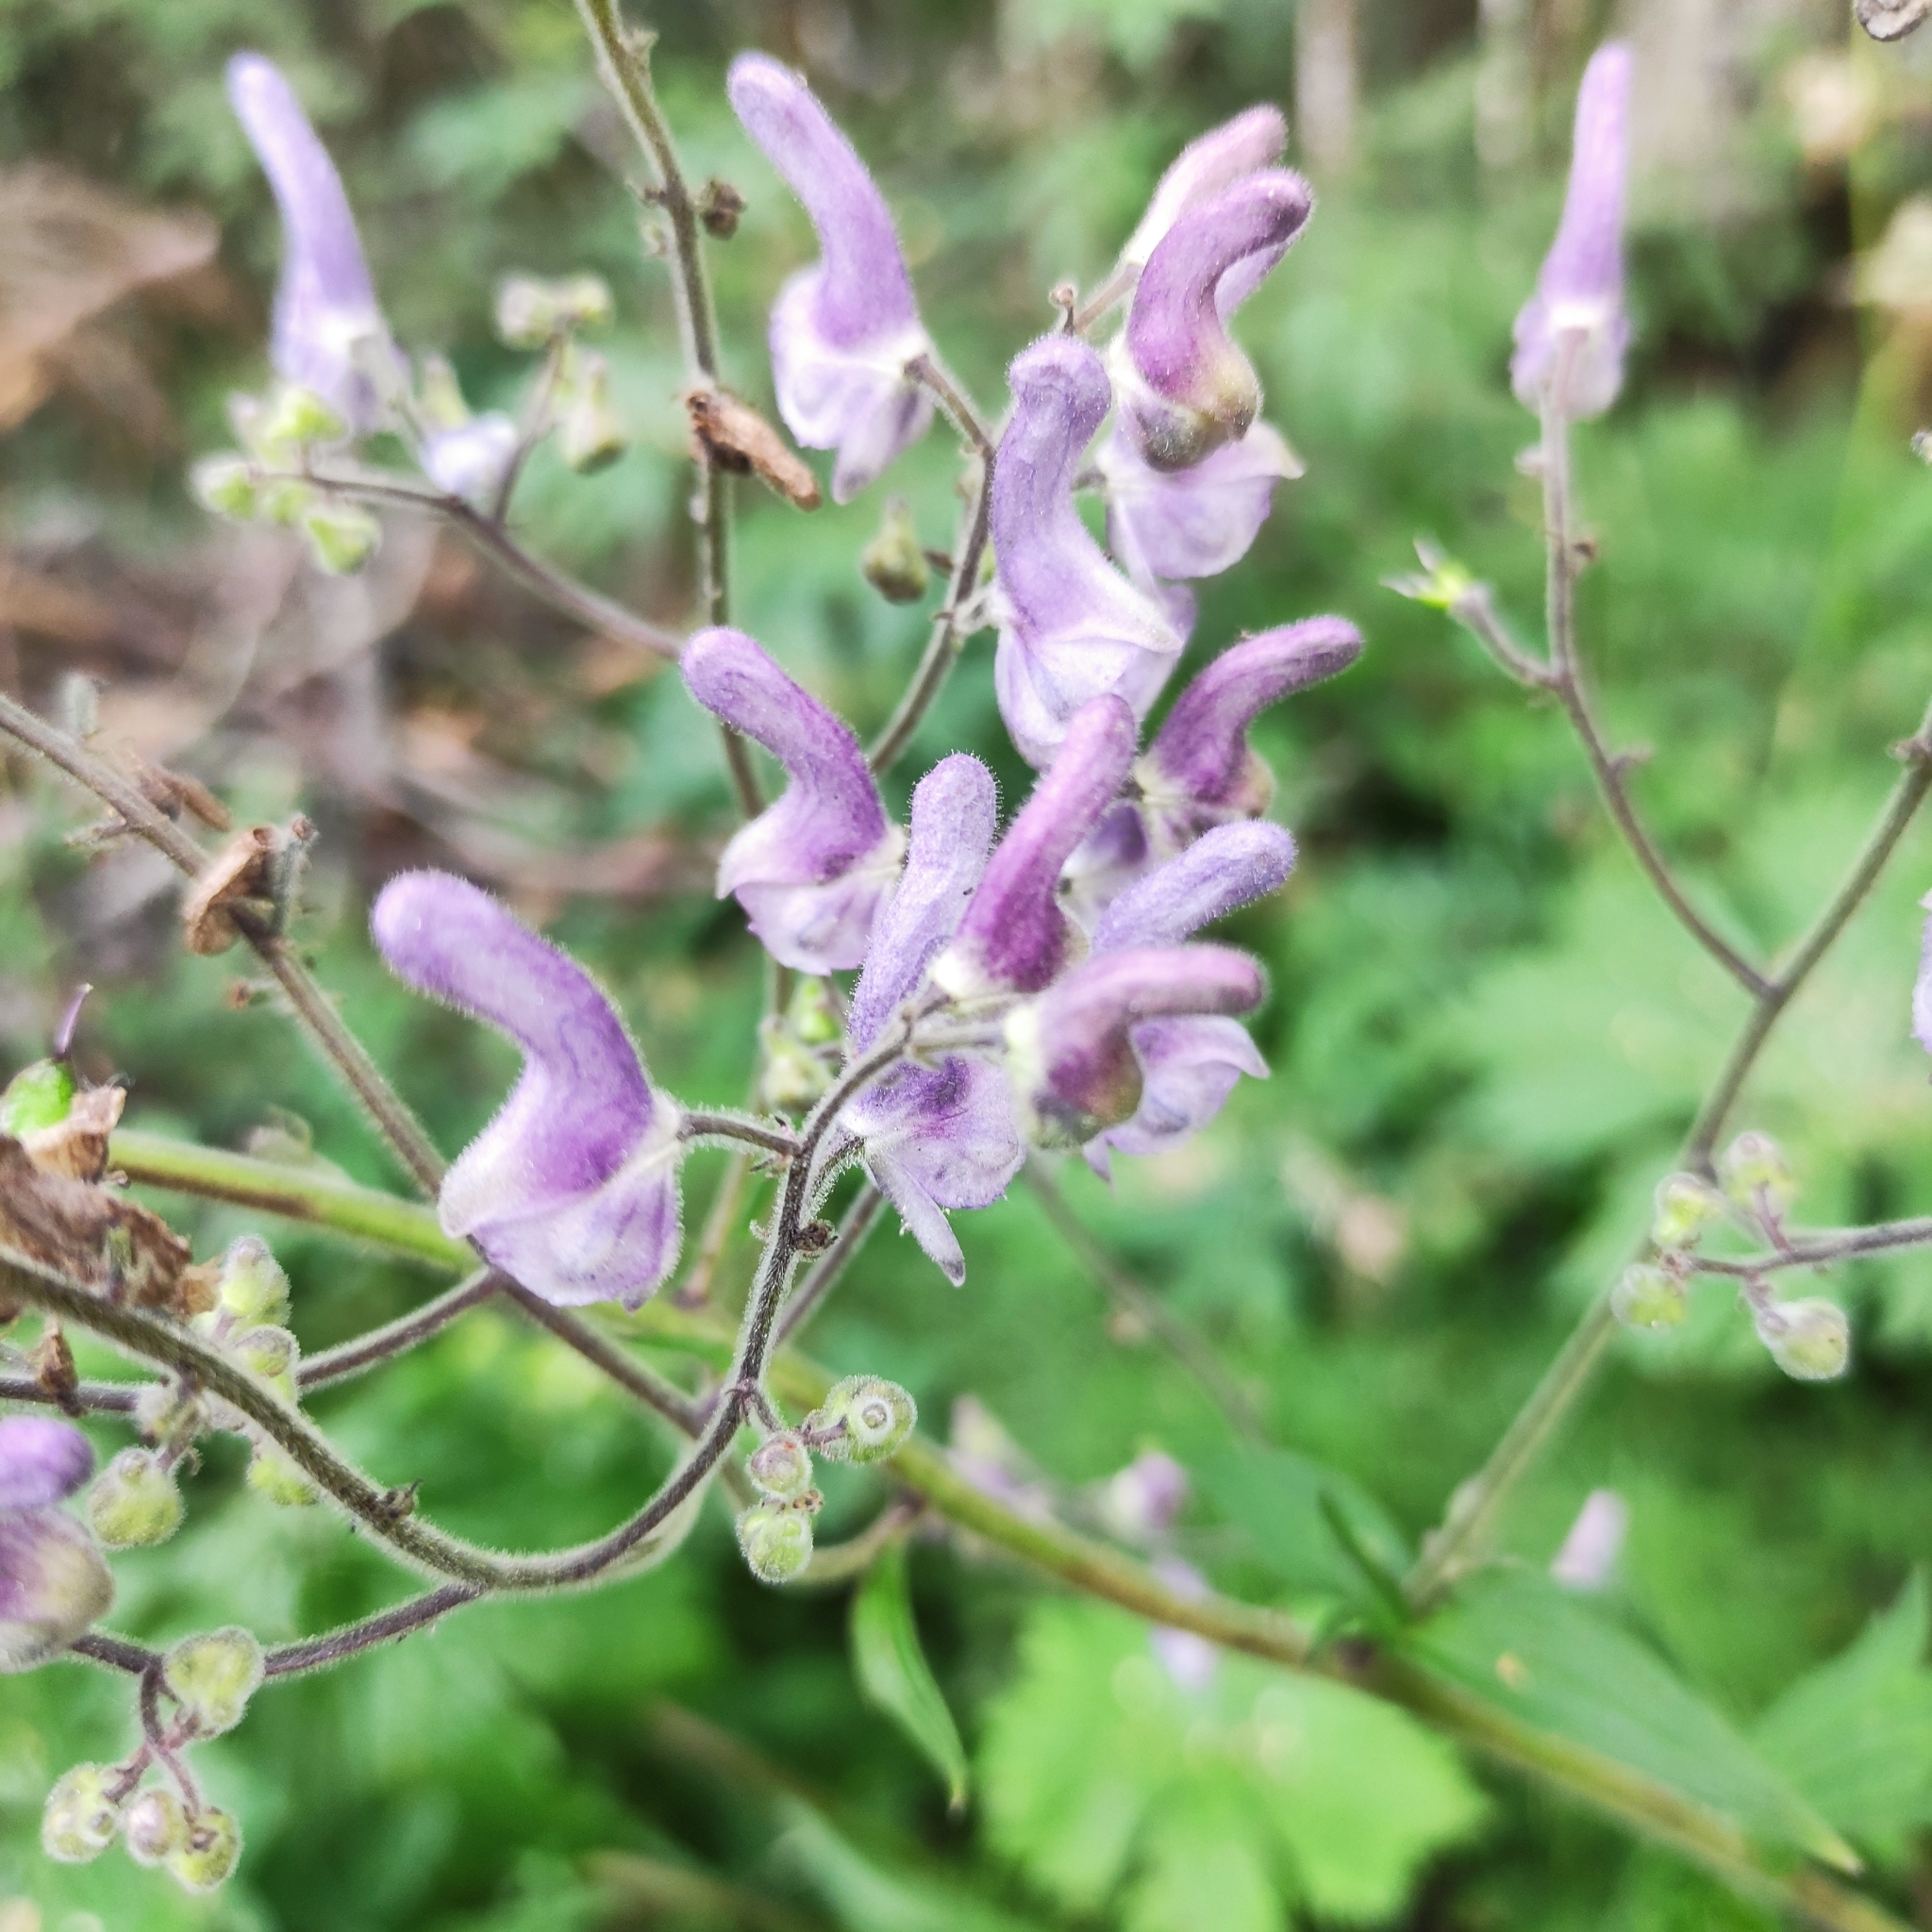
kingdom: Plantae
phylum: Tracheophyta
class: Magnoliopsida
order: Ranunculales
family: Ranunculaceae
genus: Aconitum
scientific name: Aconitum septentrionale
